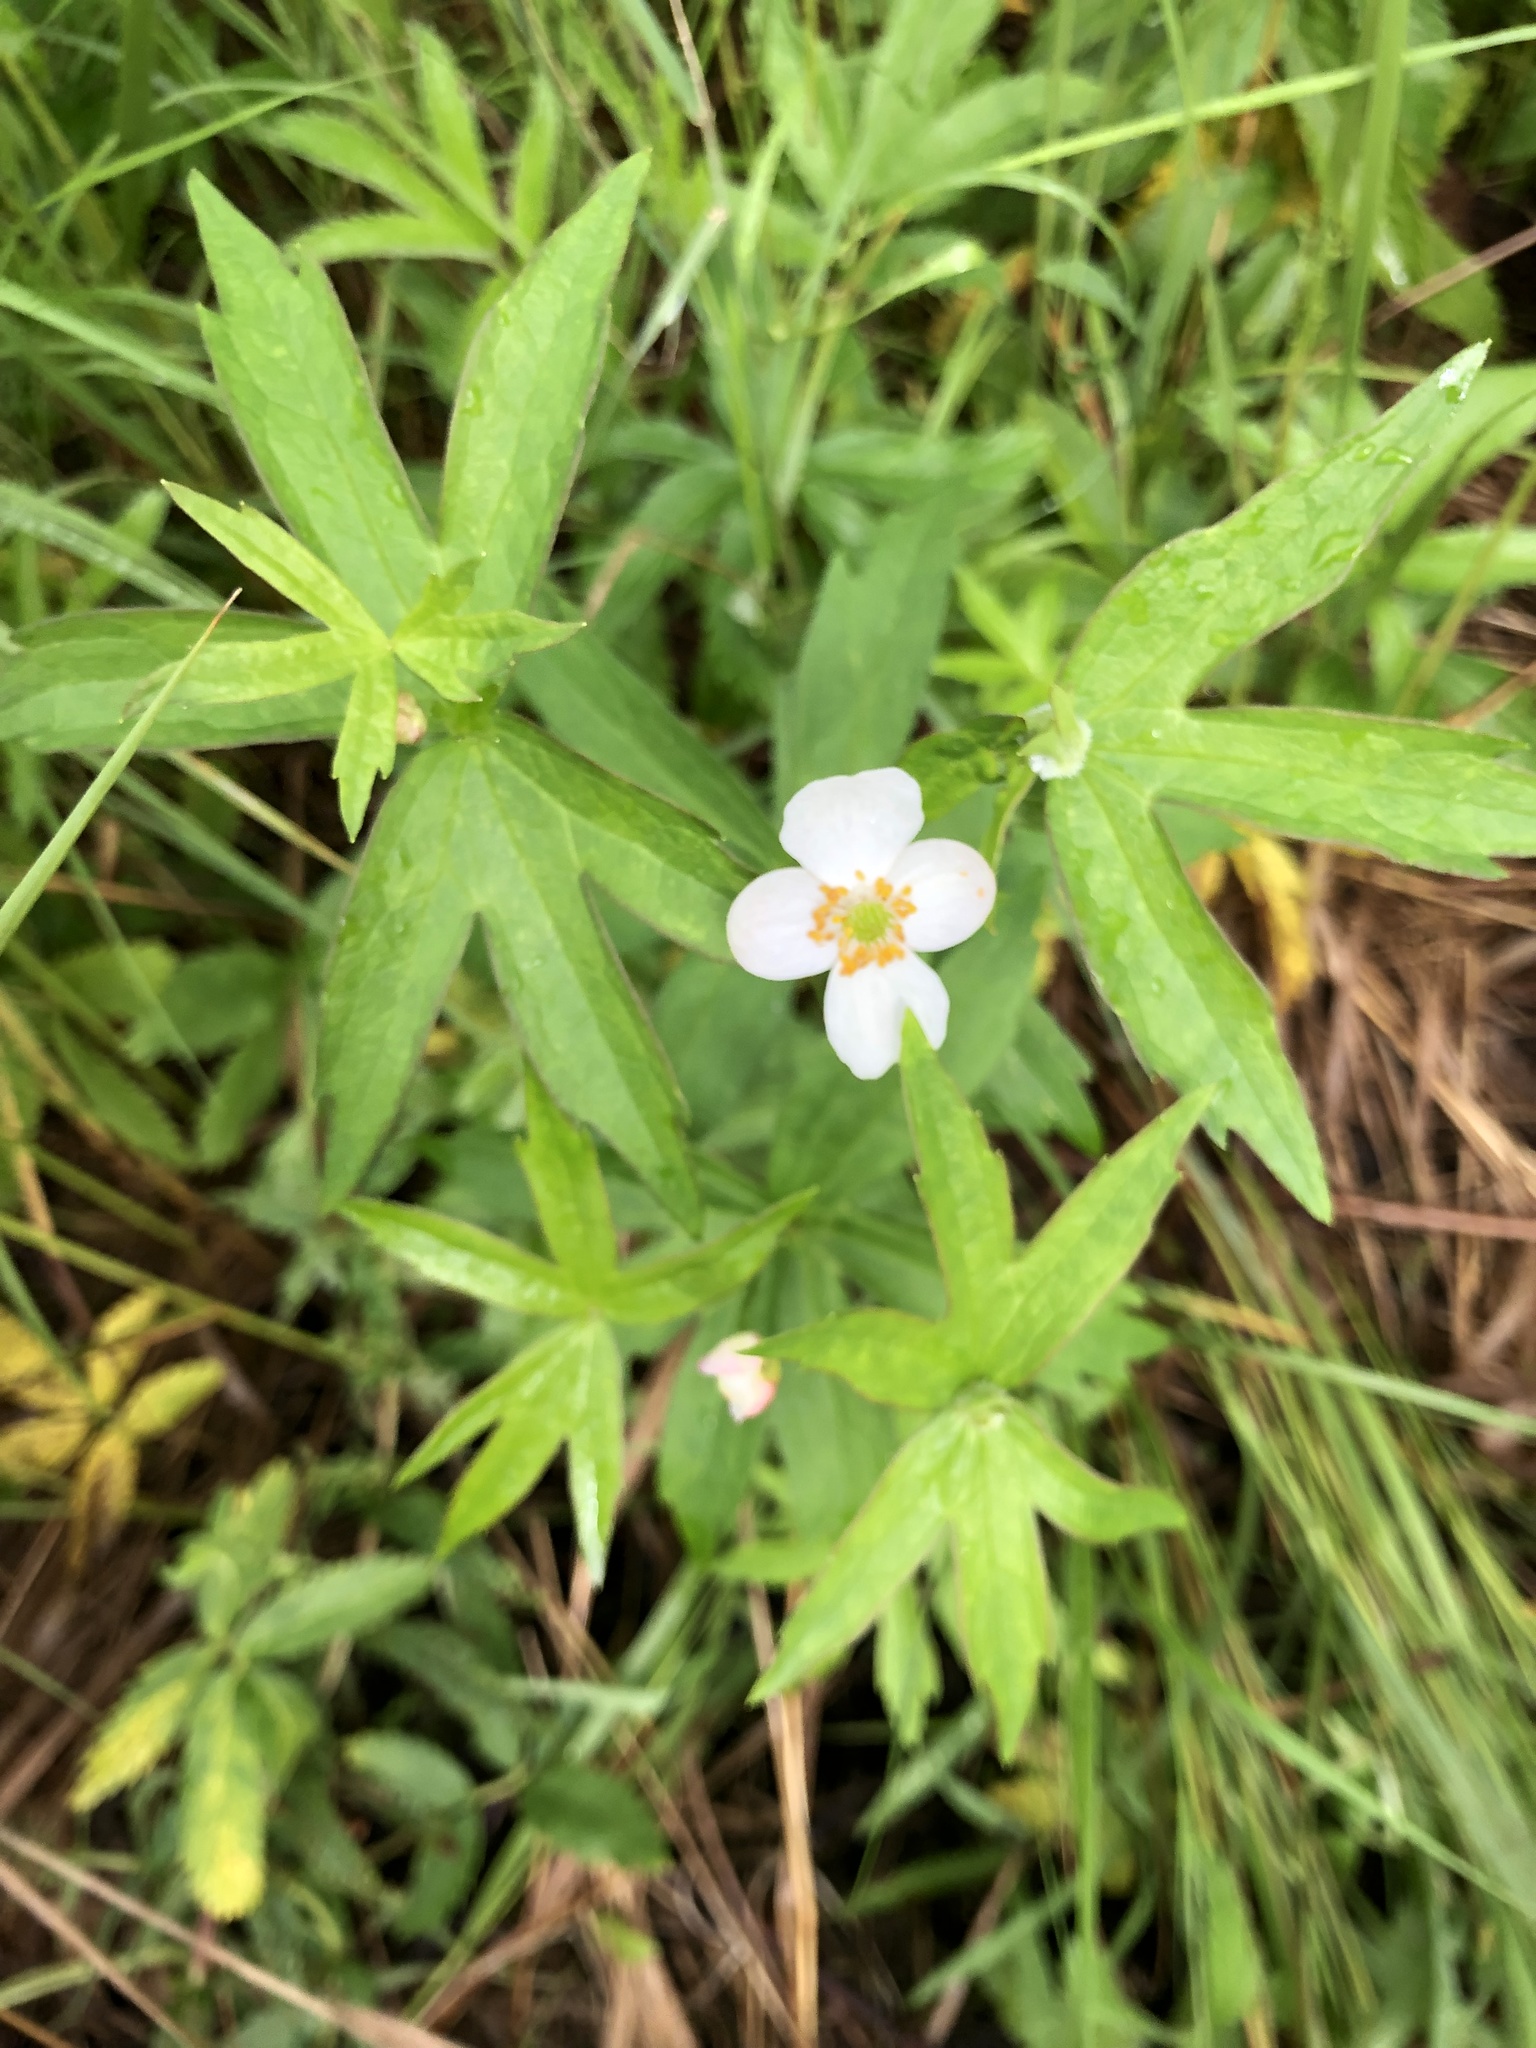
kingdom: Plantae
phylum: Tracheophyta
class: Magnoliopsida
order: Ranunculales
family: Ranunculaceae
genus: Anemonastrum
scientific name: Anemonastrum dichotomum
